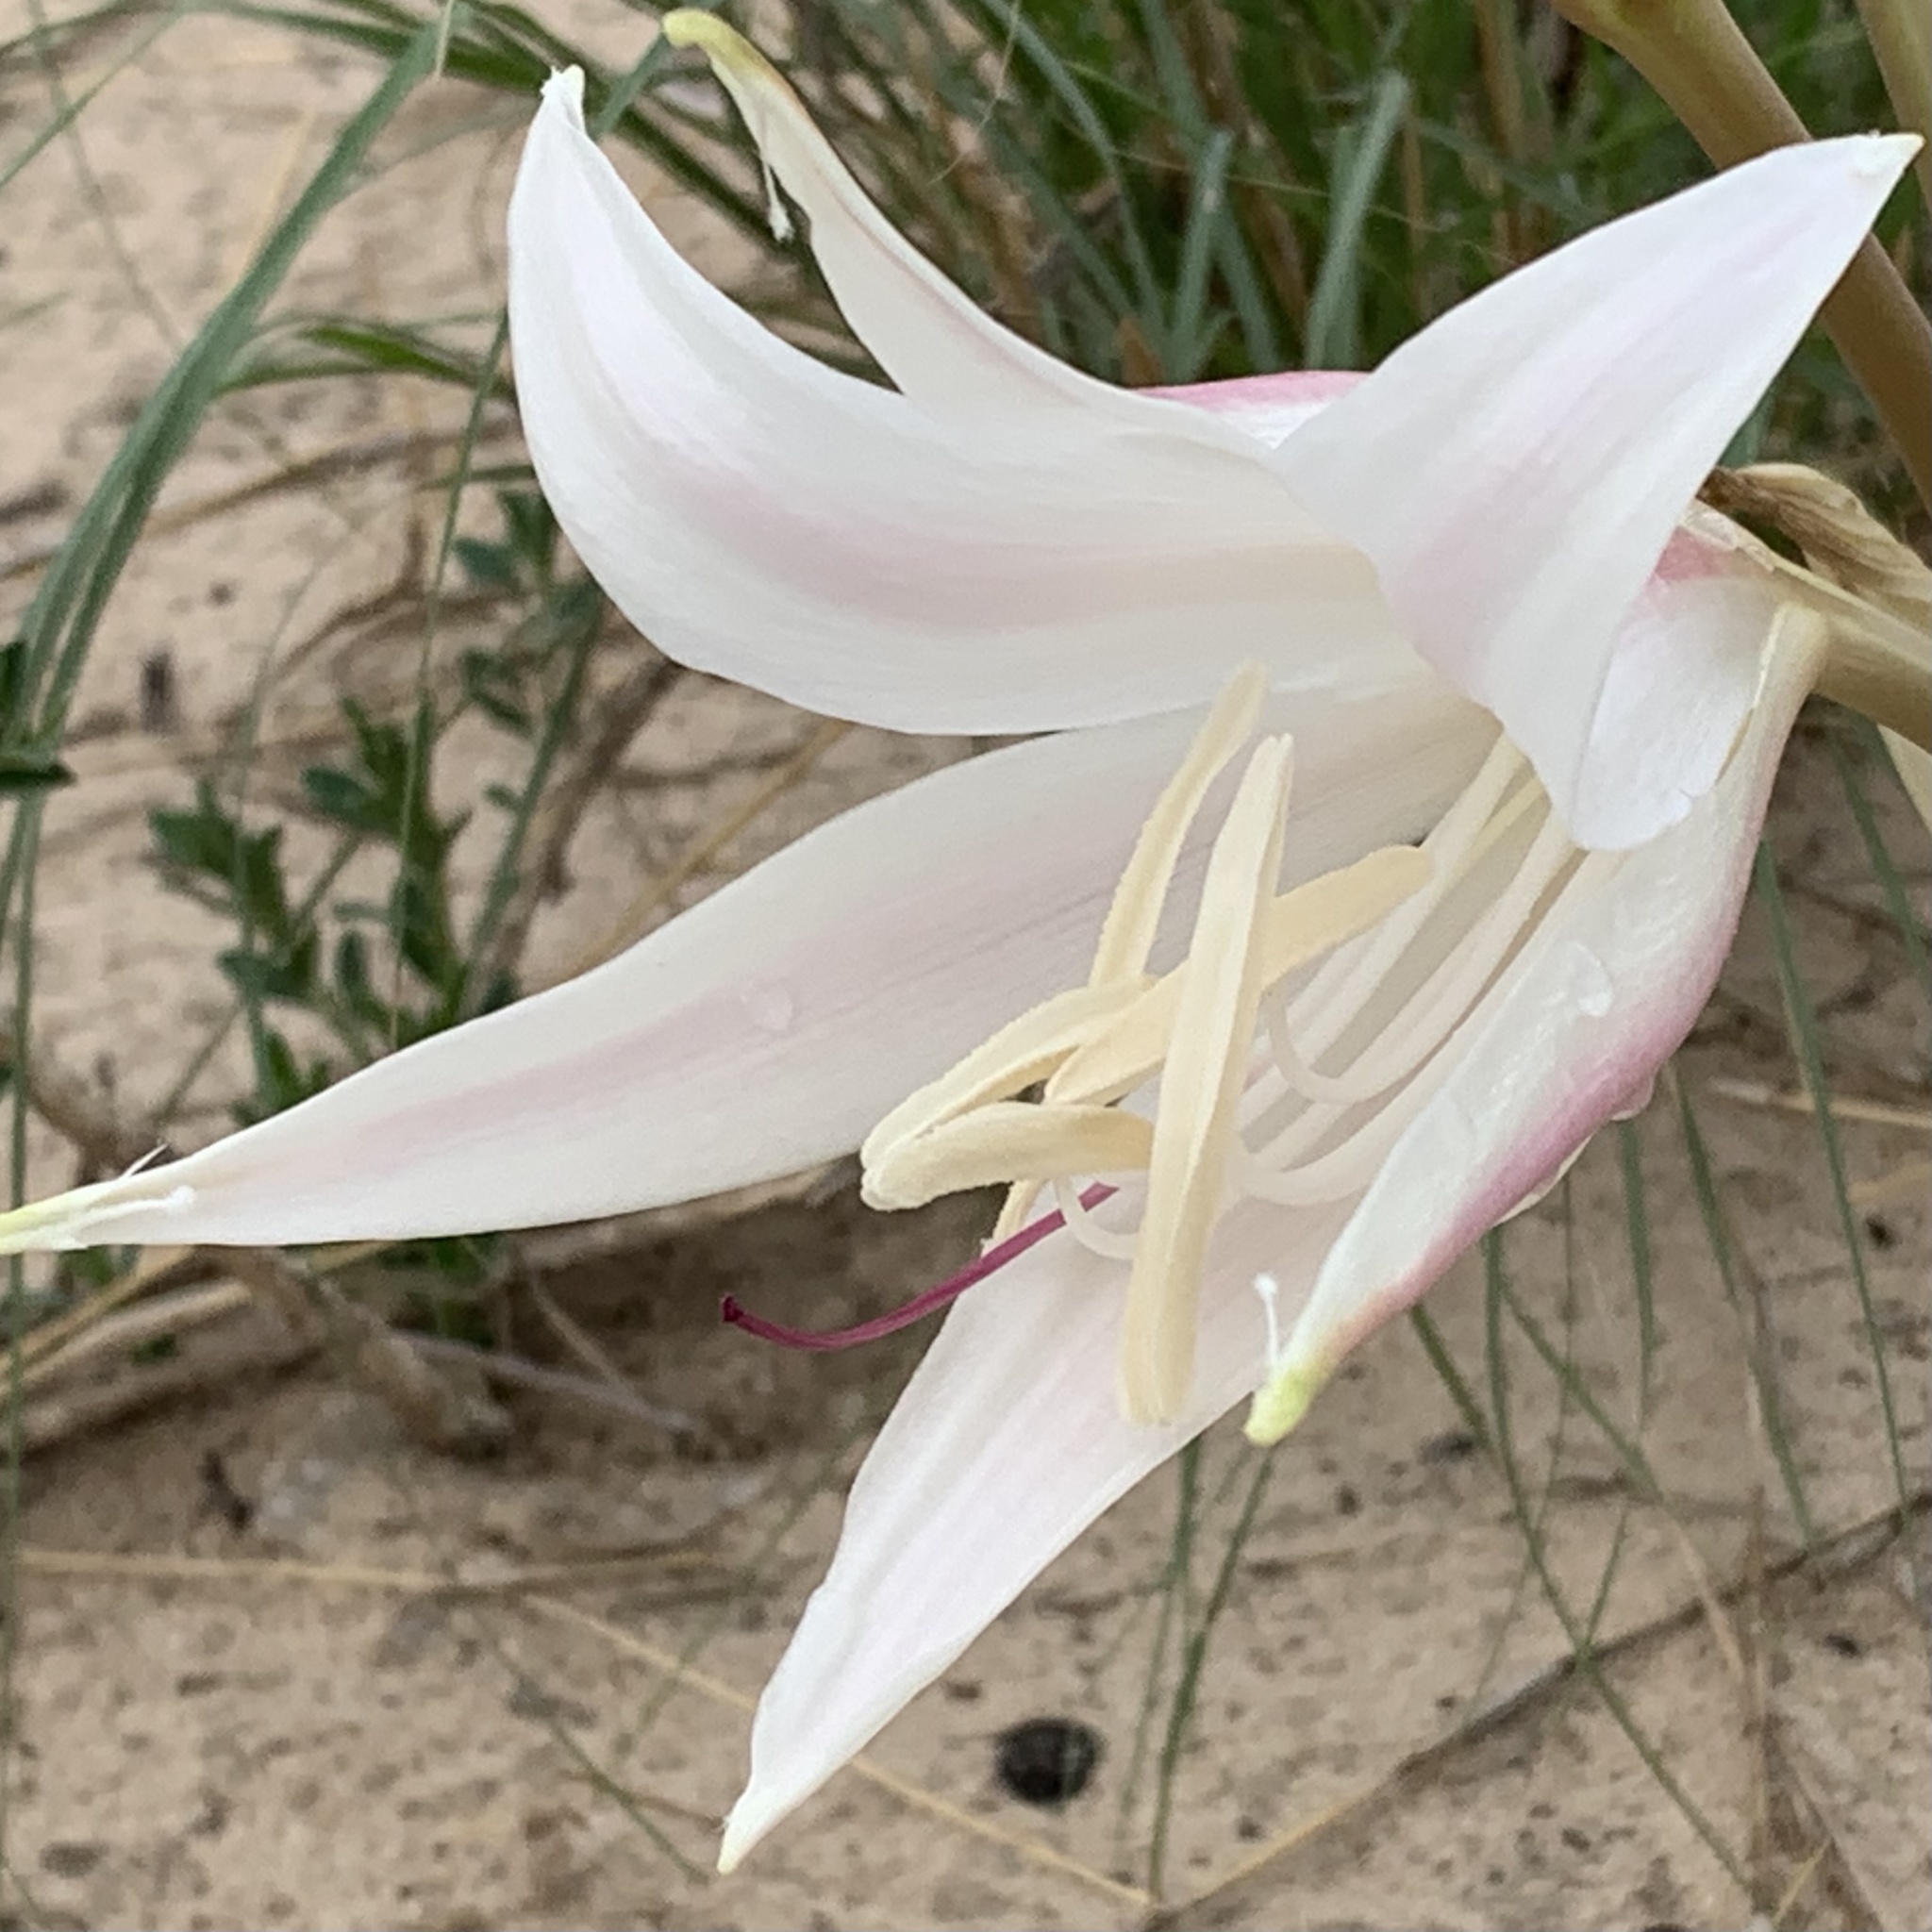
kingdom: Plantae
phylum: Tracheophyta
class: Liliopsida
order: Asparagales
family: Amaryllidaceae
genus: Crinum
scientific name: Crinum crassicaule
